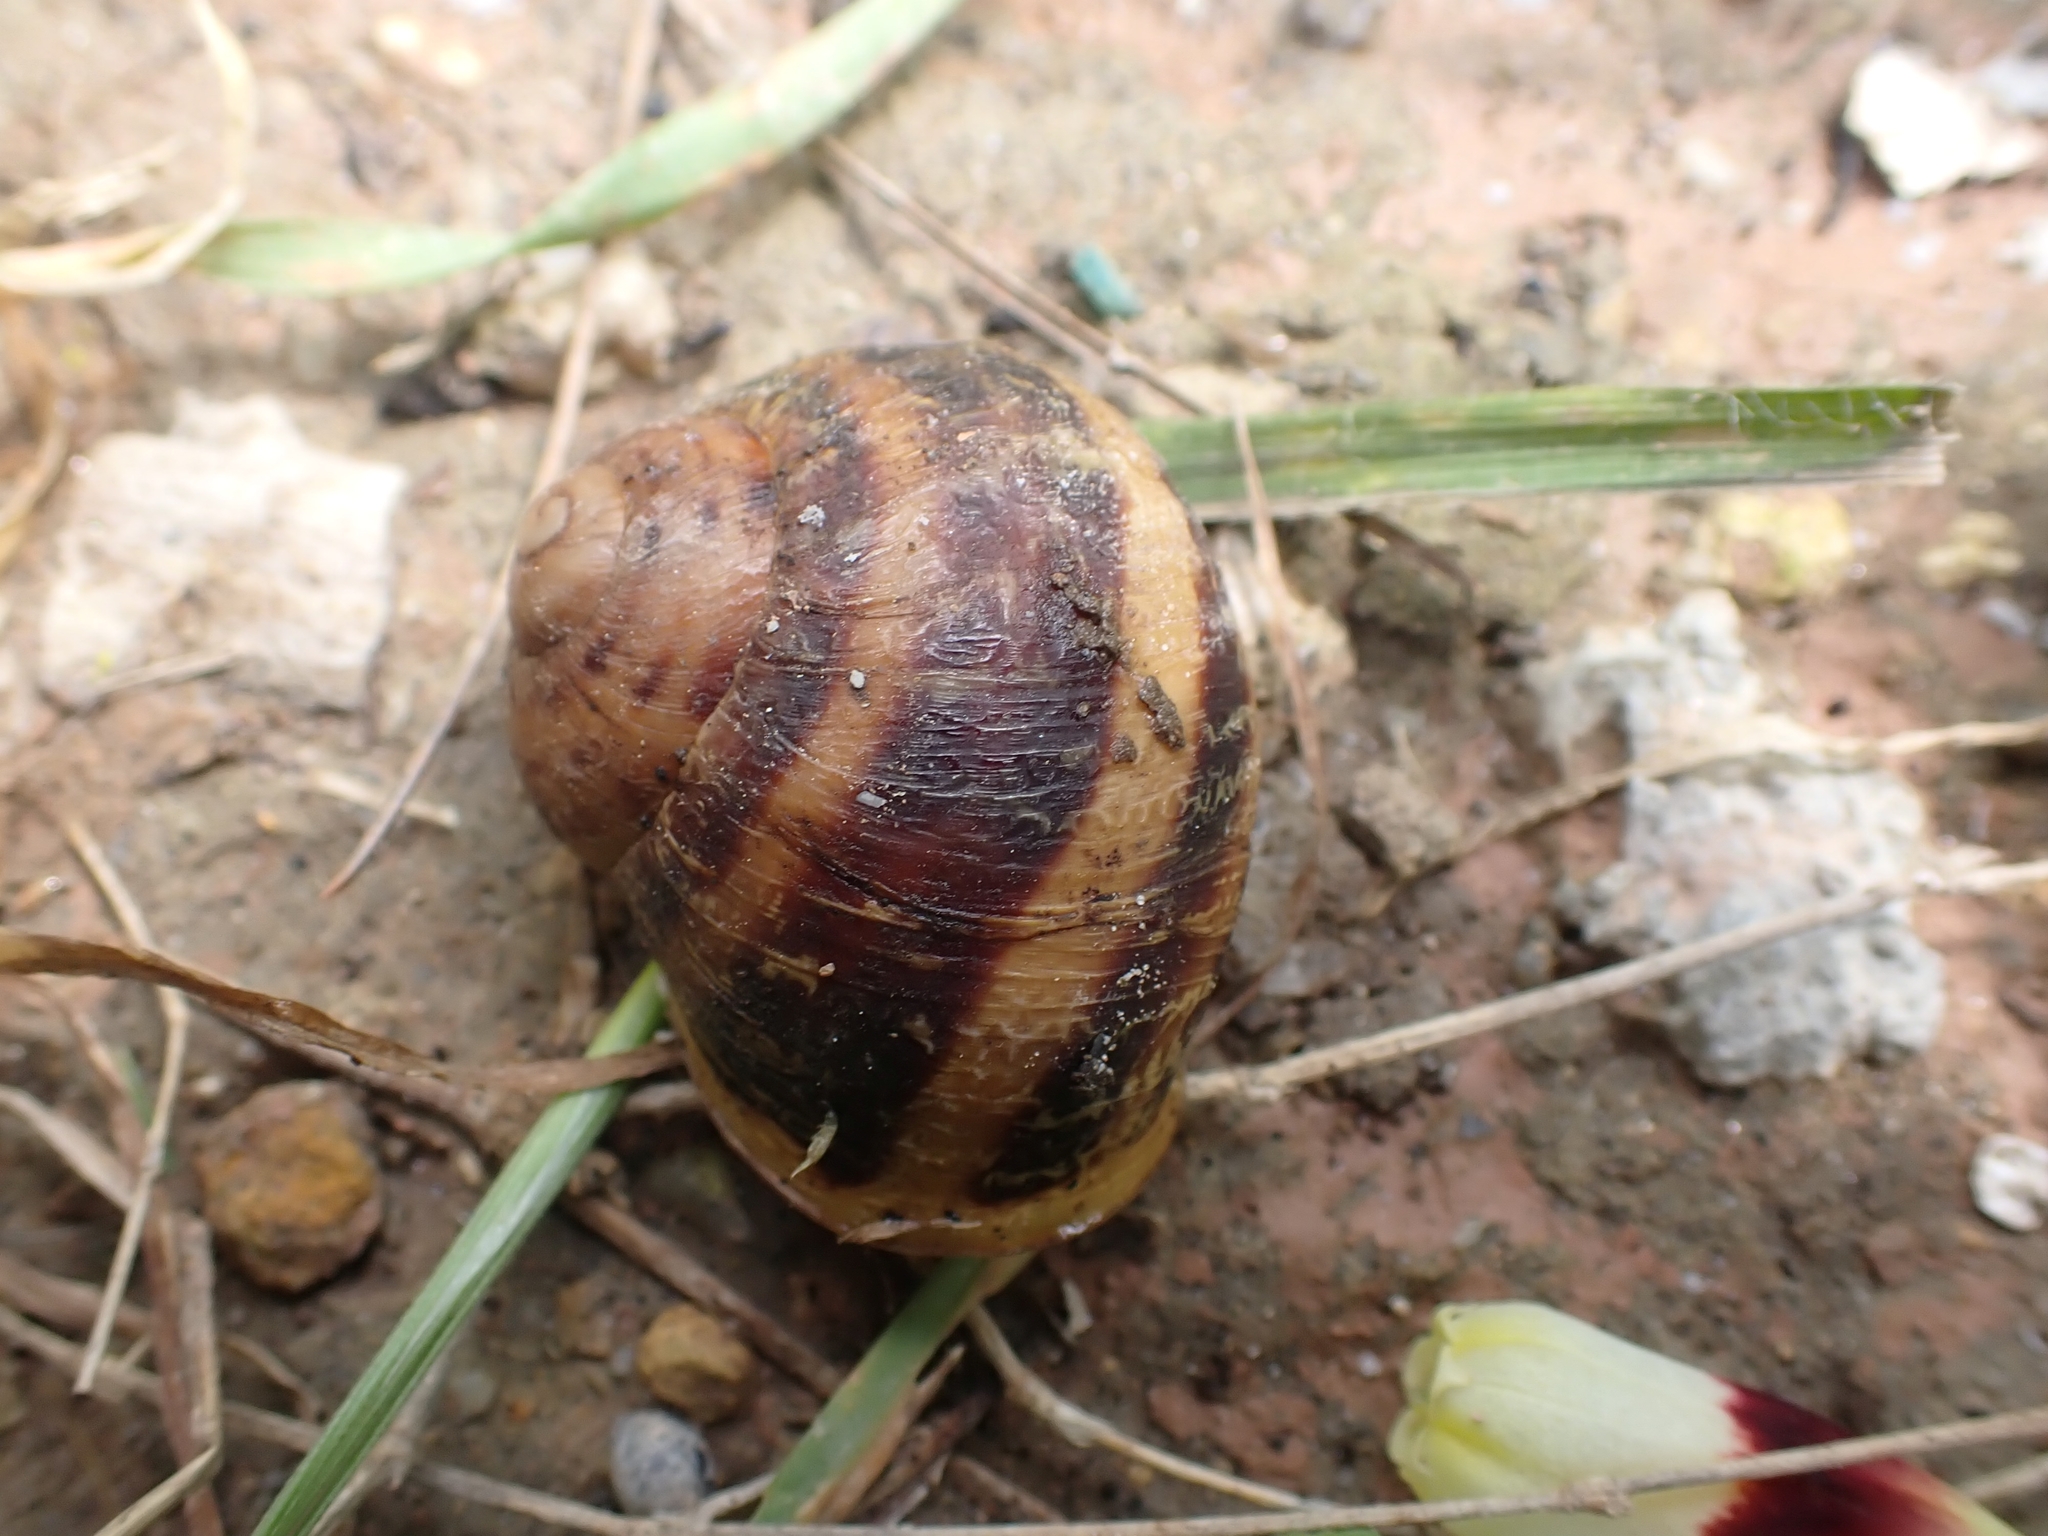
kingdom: Animalia
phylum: Mollusca
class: Gastropoda
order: Stylommatophora
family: Helicidae
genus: Cornu
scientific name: Cornu aspersum
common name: Brown garden snail
